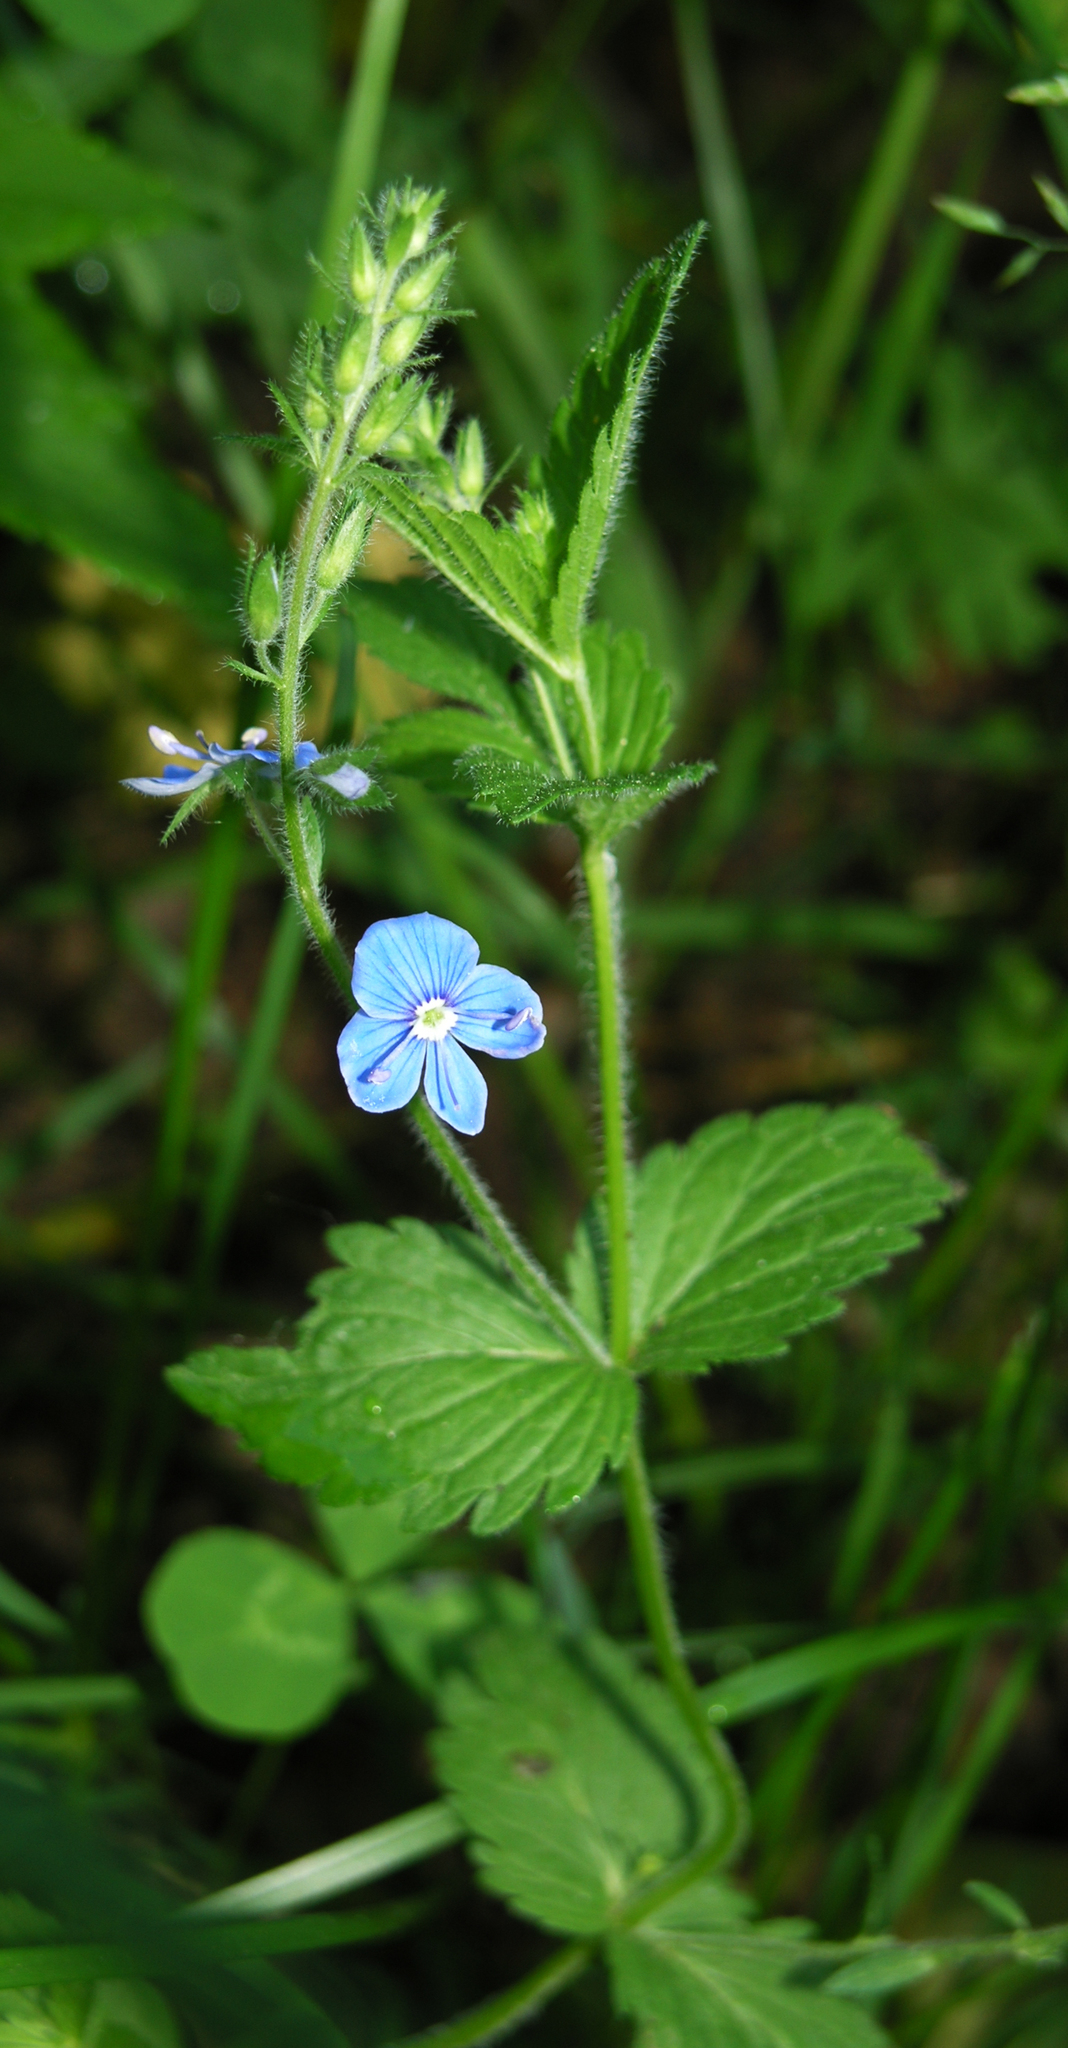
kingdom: Plantae
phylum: Tracheophyta
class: Magnoliopsida
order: Lamiales
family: Plantaginaceae
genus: Veronica
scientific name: Veronica chamaedrys
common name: Germander speedwell
